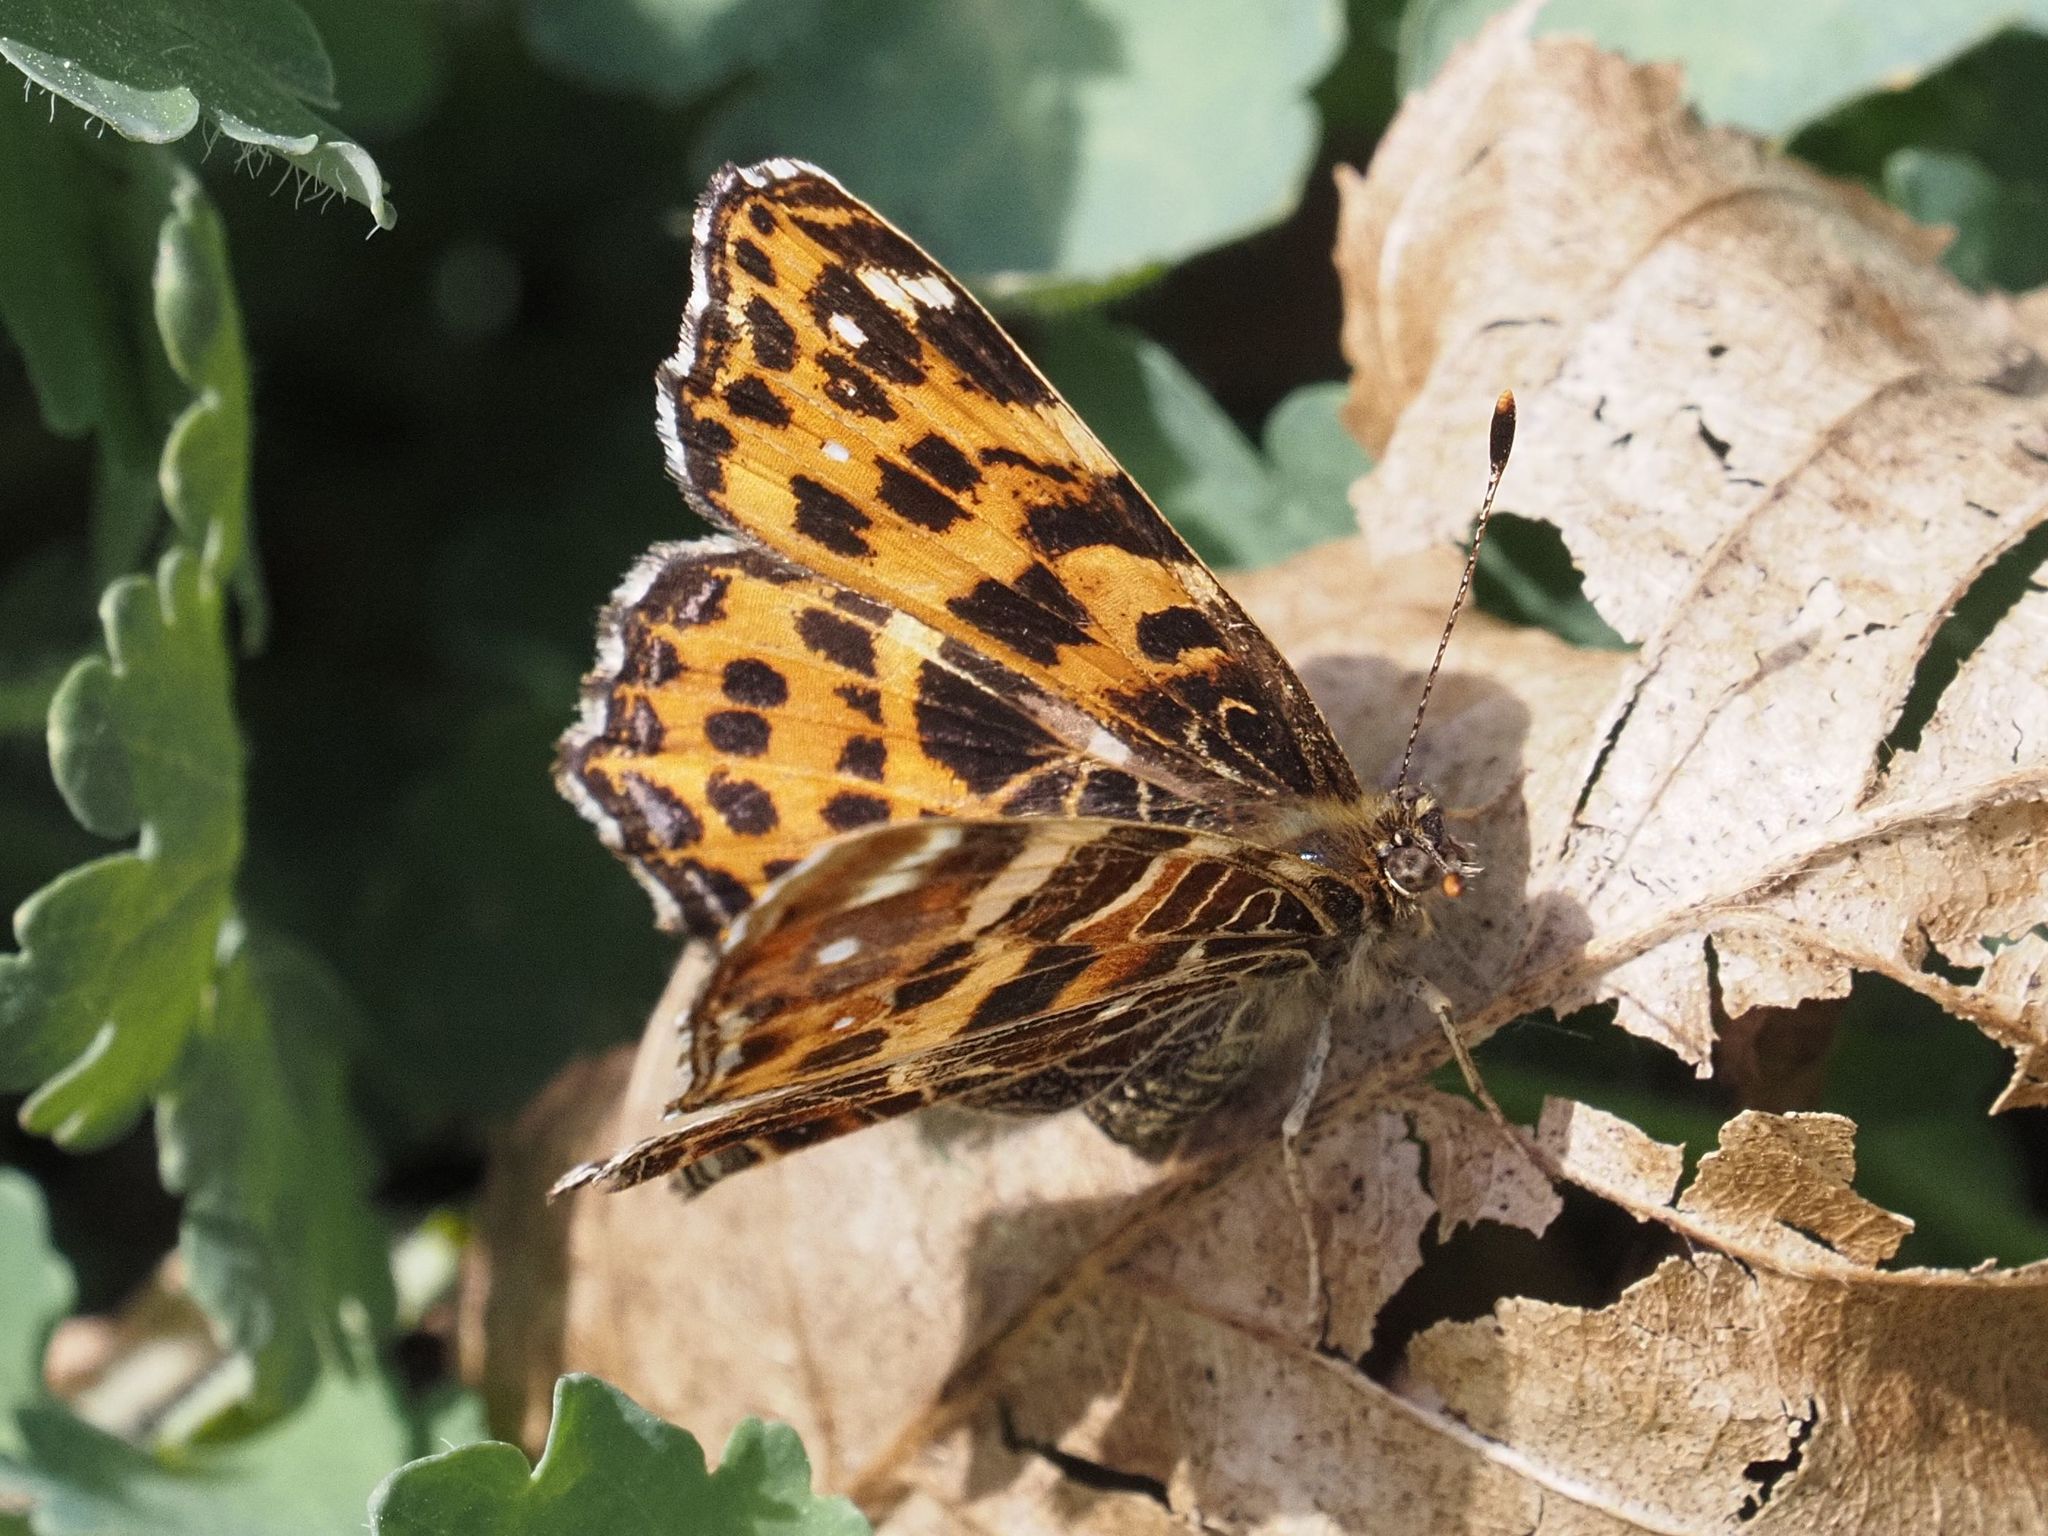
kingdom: Animalia
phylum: Arthropoda
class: Insecta
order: Lepidoptera
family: Nymphalidae
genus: Araschnia
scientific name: Araschnia levana
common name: Map butterfly
